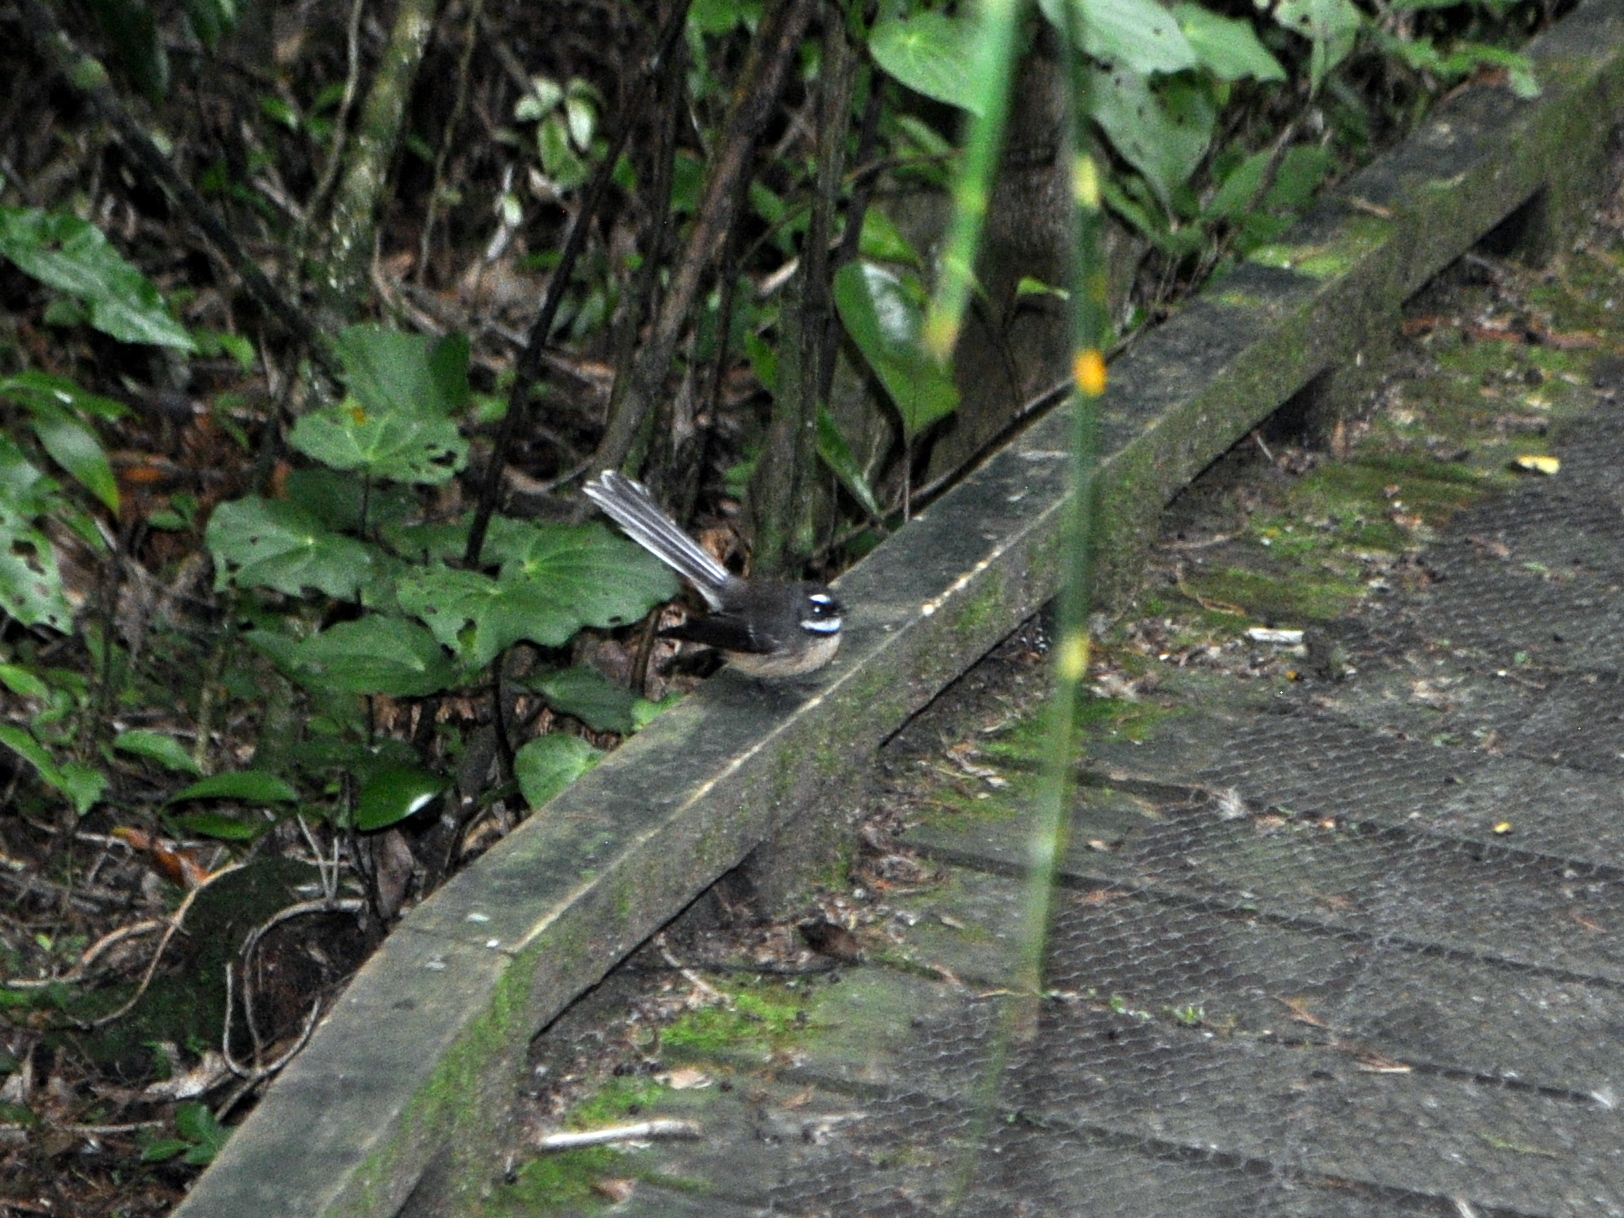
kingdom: Animalia
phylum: Chordata
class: Aves
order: Passeriformes
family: Rhipiduridae
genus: Rhipidura
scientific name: Rhipidura fuliginosa
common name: New zealand fantail
